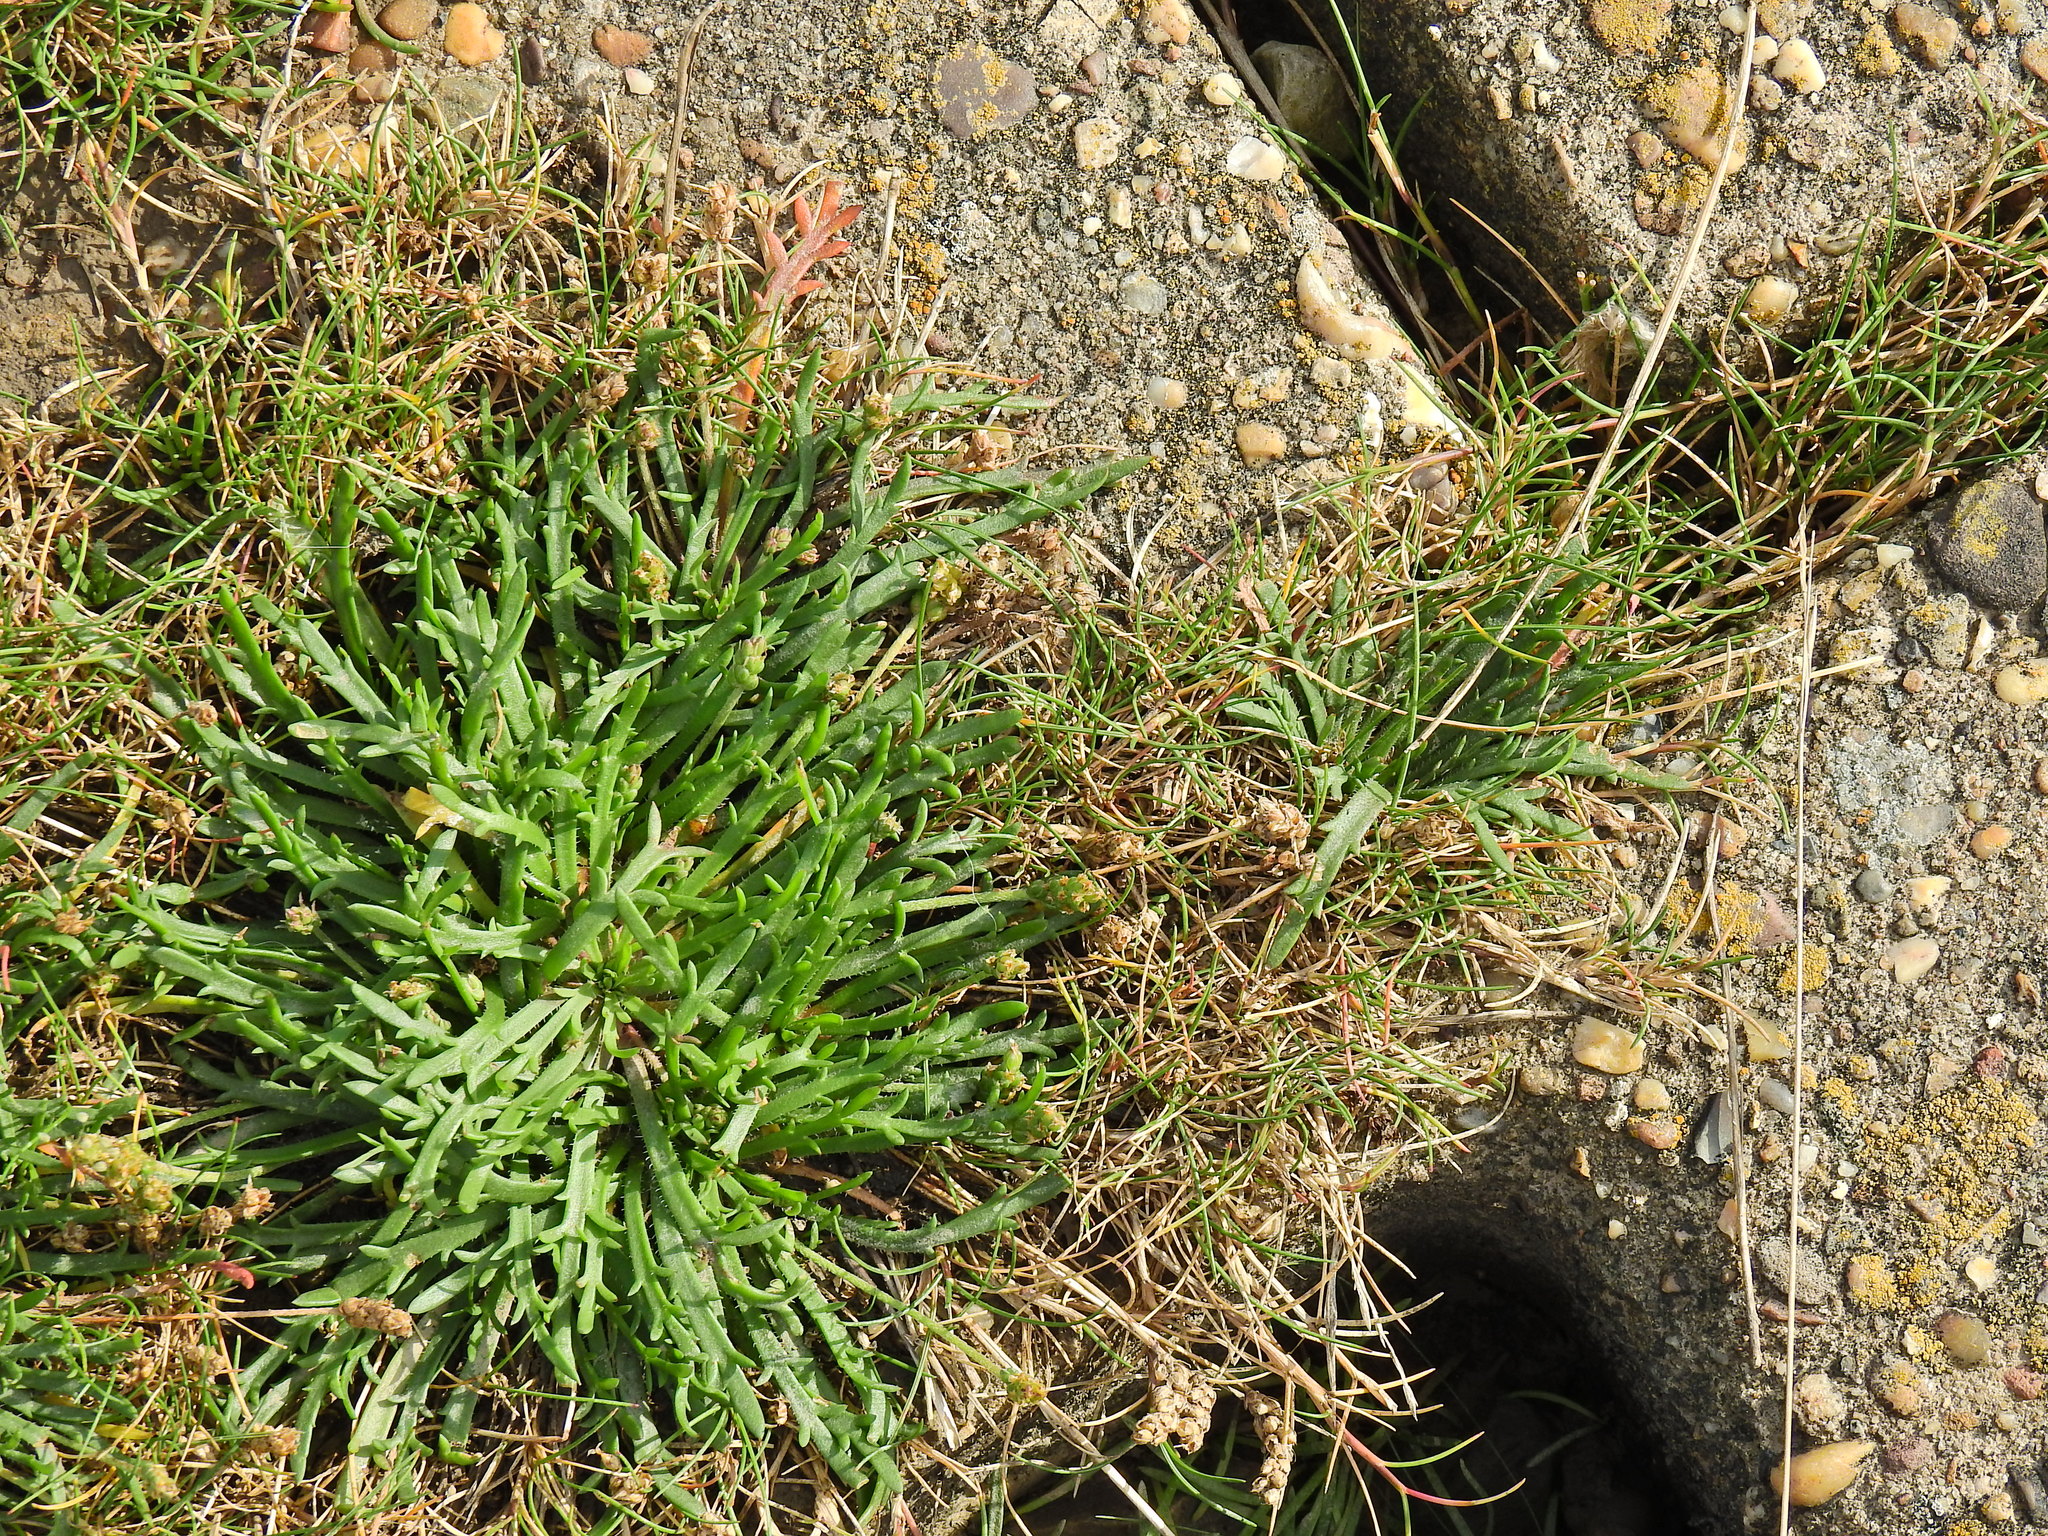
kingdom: Plantae
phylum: Tracheophyta
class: Magnoliopsida
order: Lamiales
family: Plantaginaceae
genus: Plantago
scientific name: Plantago coronopus
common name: Buck's-horn plantain
